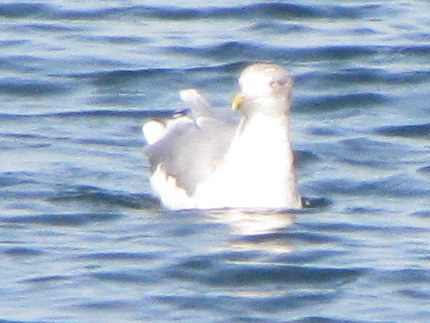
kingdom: Animalia
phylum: Chordata
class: Aves
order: Charadriiformes
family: Laridae
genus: Larus
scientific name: Larus argentatus
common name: Herring gull
